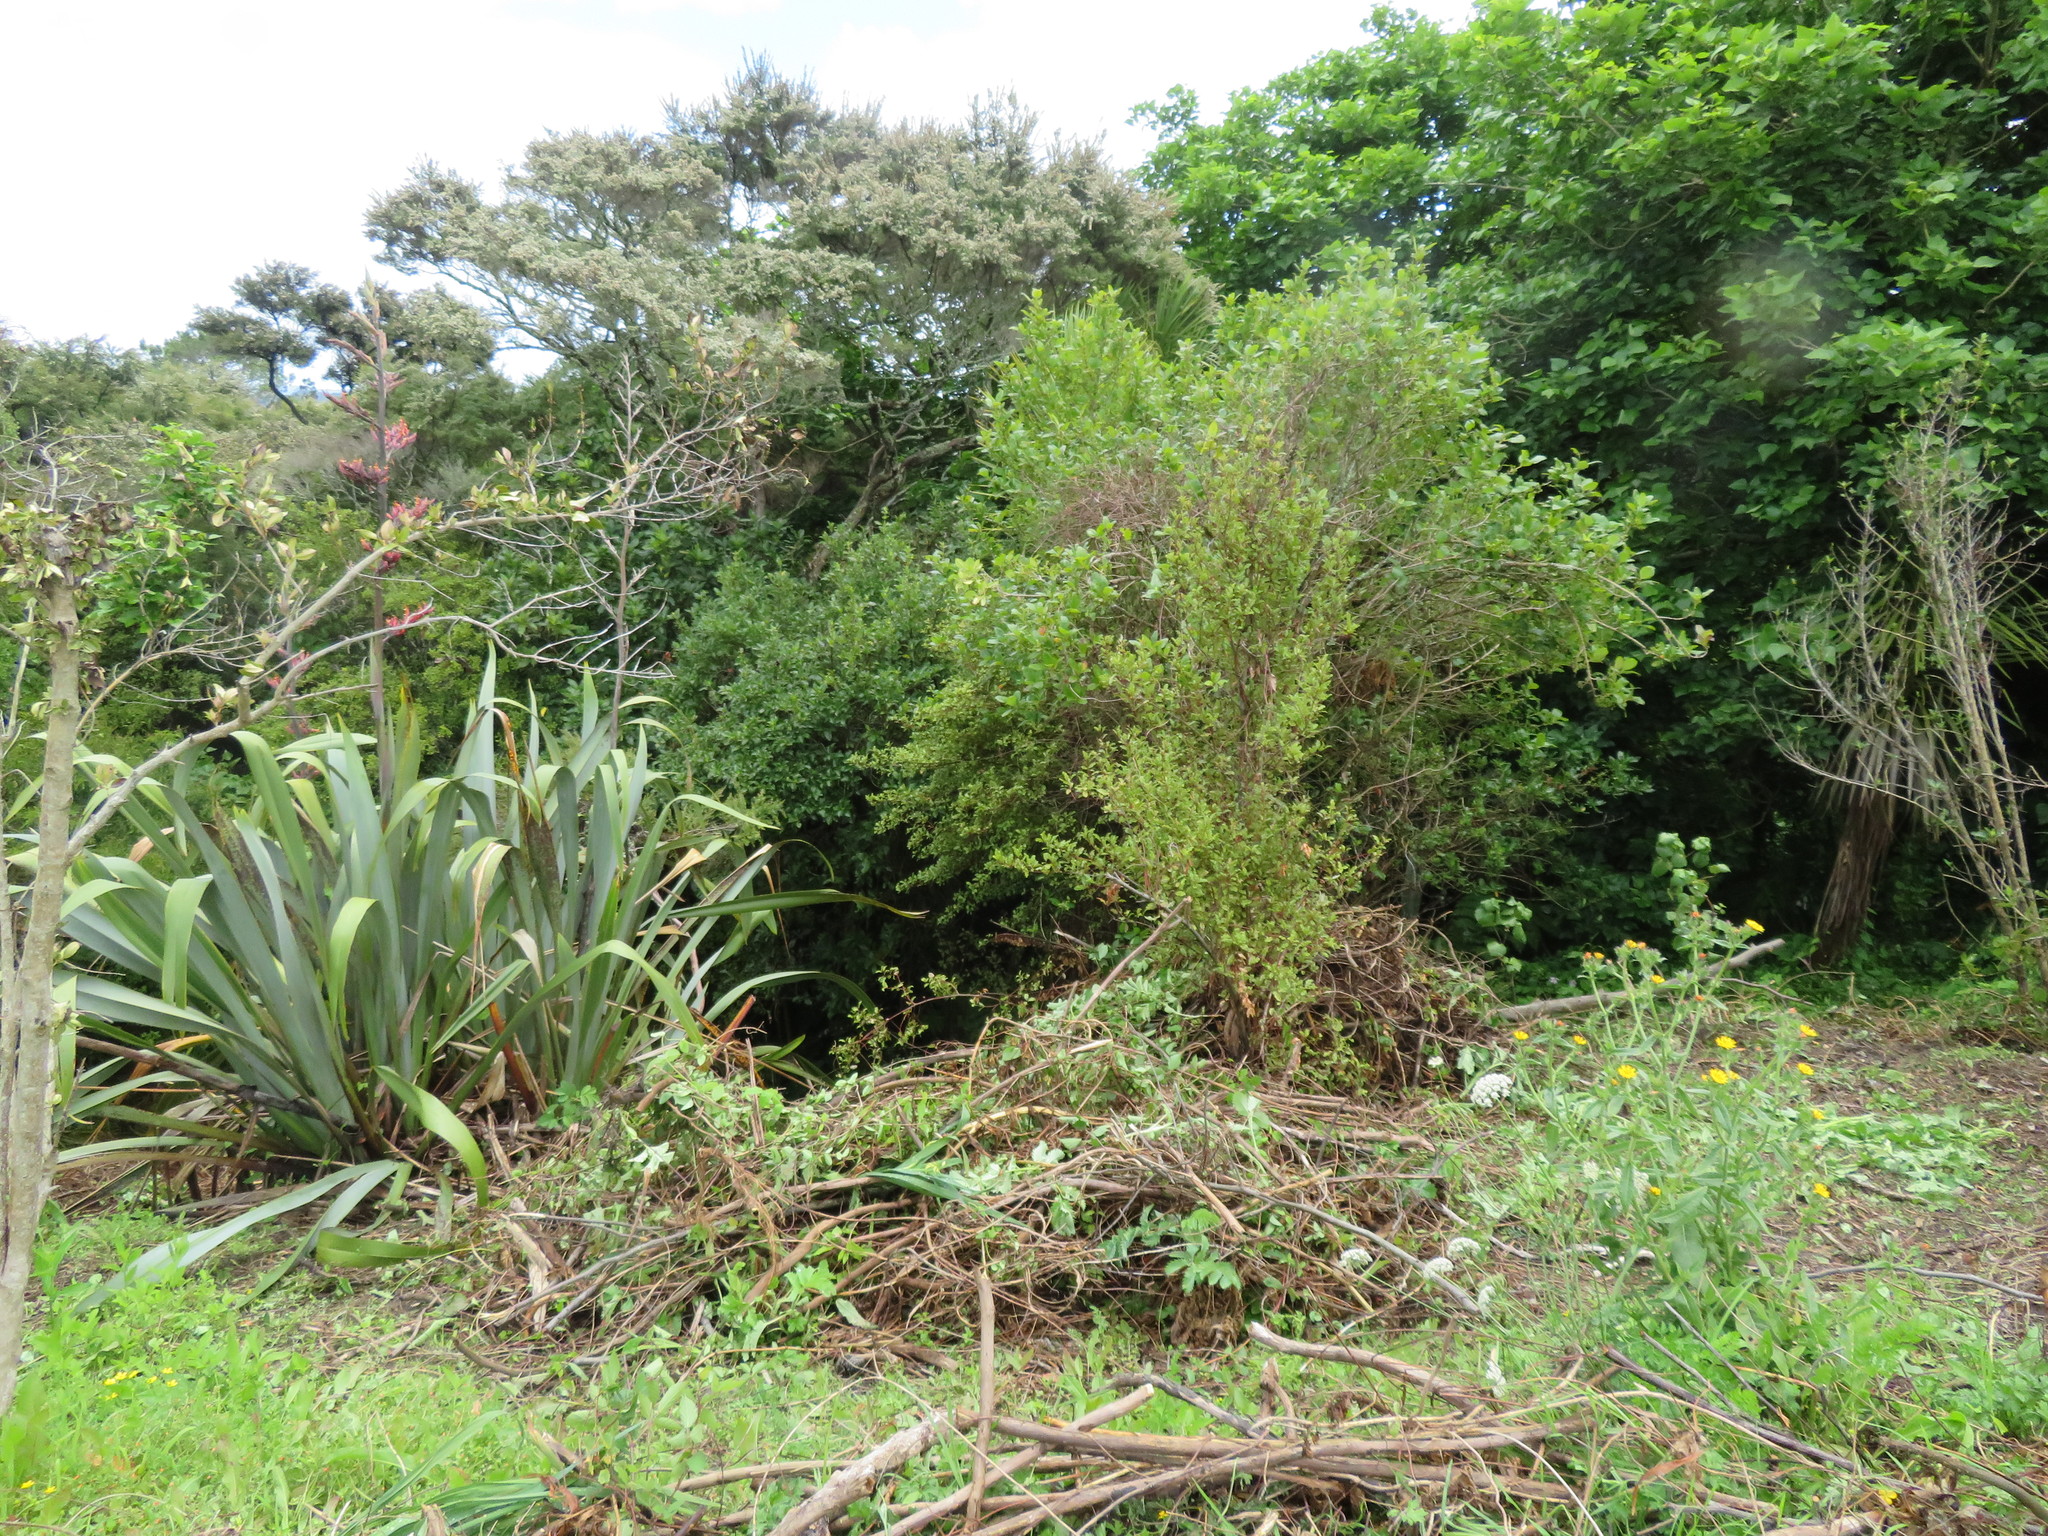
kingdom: Plantae
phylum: Tracheophyta
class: Magnoliopsida
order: Geraniales
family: Melianthaceae
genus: Melianthus
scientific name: Melianthus major
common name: Honey-flower
